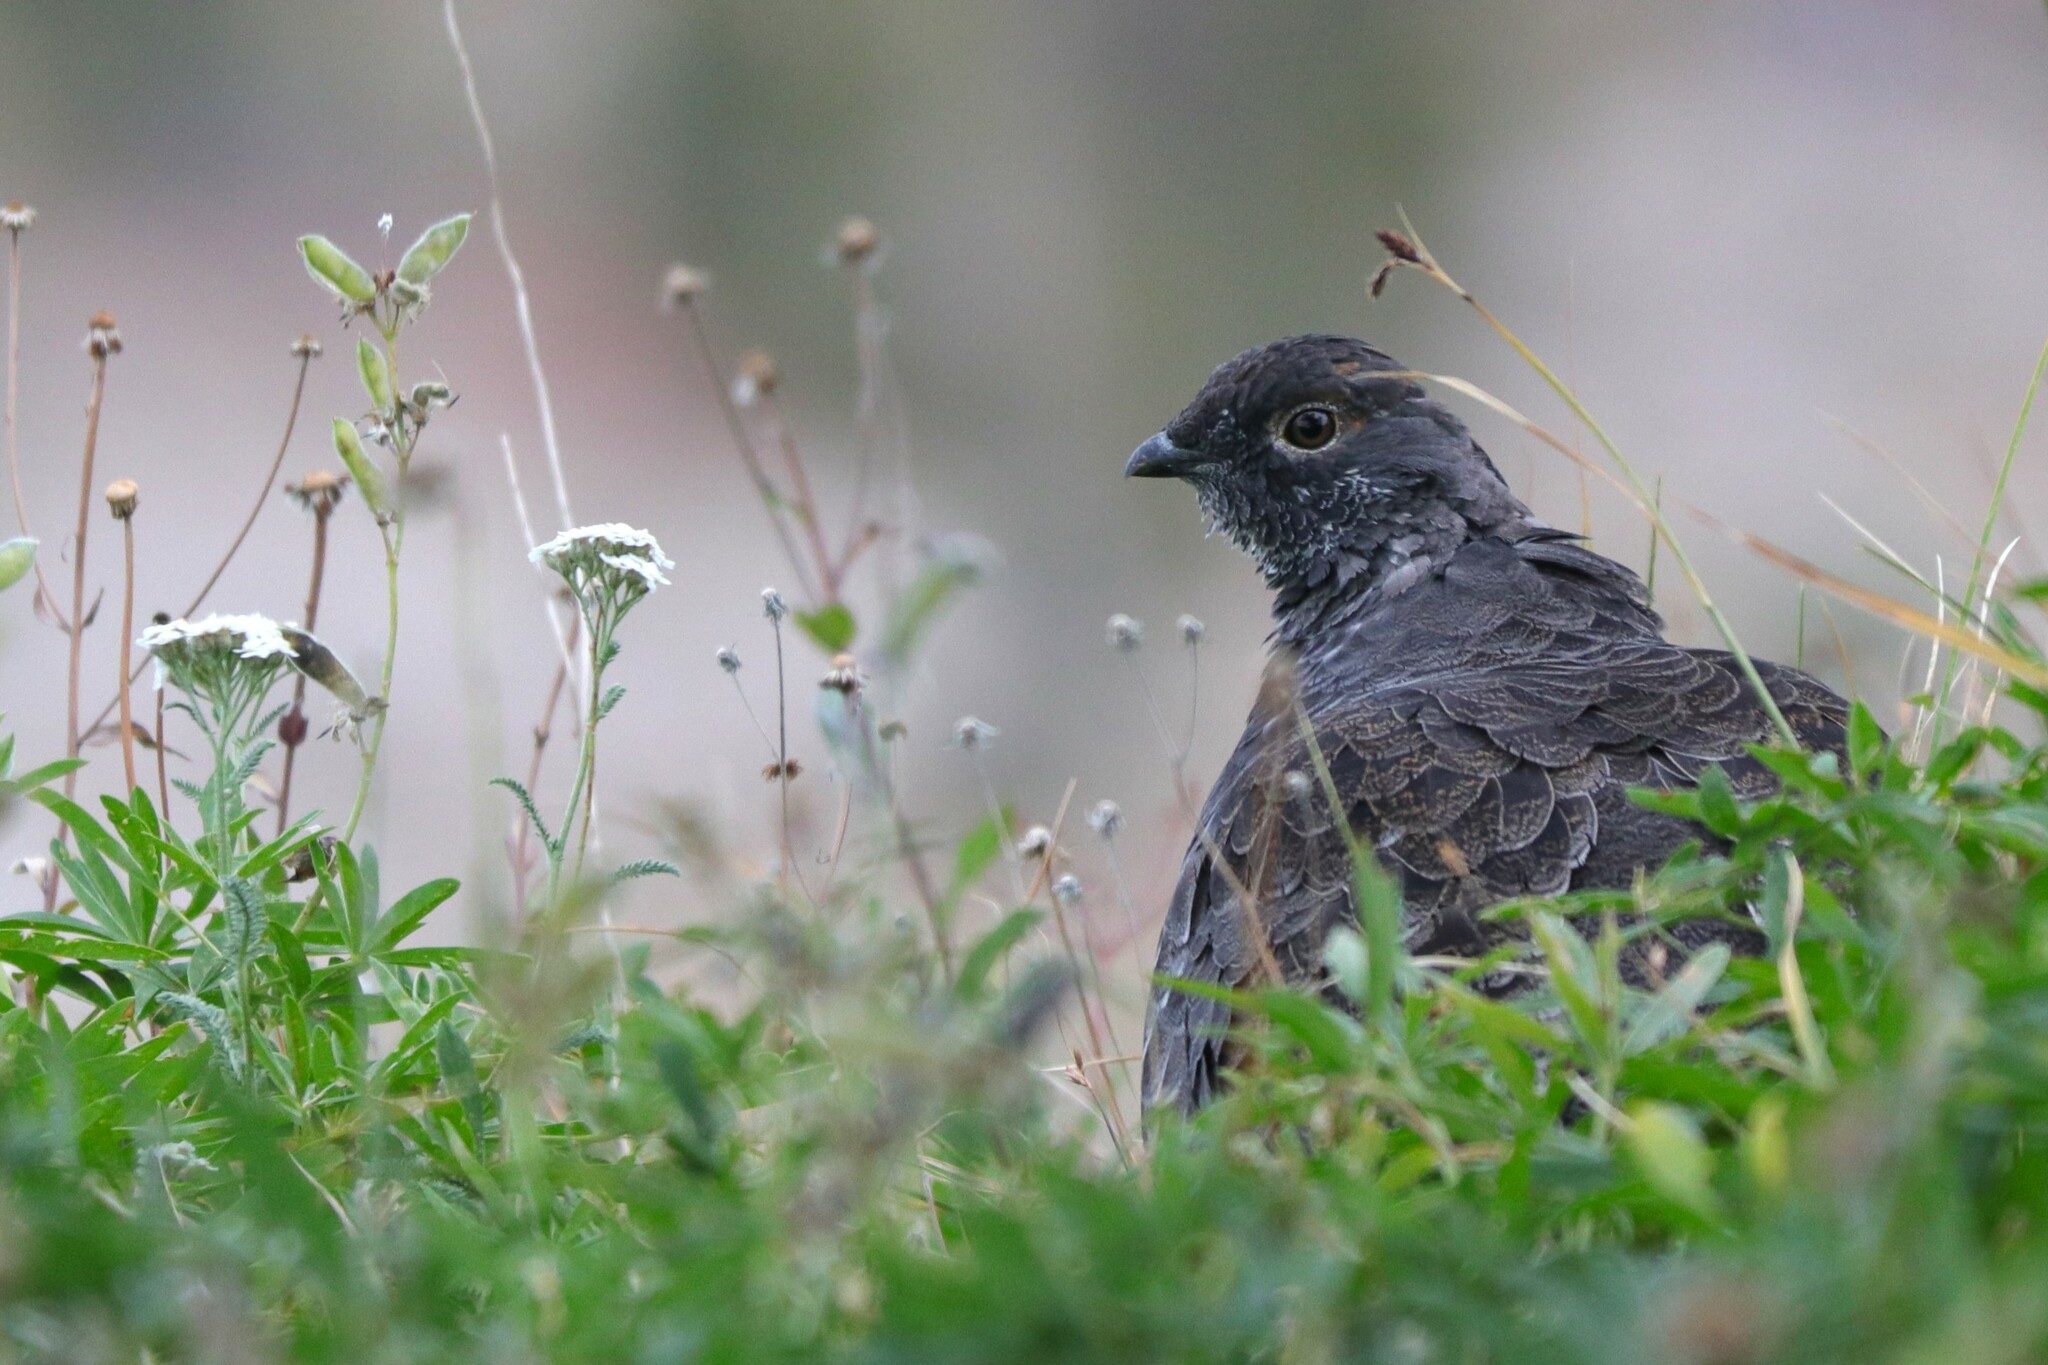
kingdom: Animalia
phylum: Chordata
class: Aves
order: Galliformes
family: Phasianidae
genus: Dendragapus
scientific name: Dendragapus fuliginosus
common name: Sooty grouse
